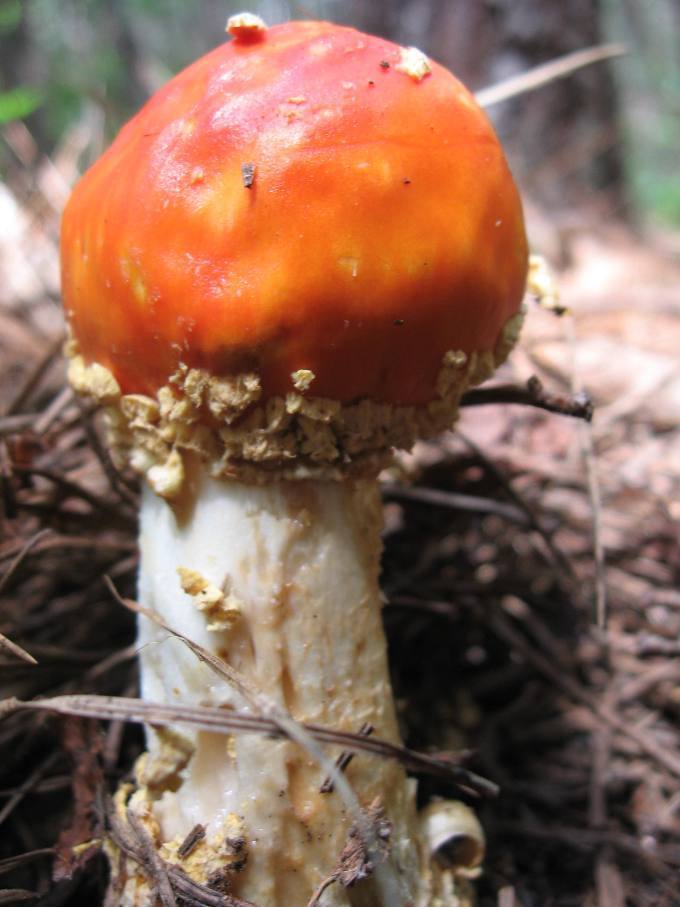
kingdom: Fungi
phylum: Basidiomycota
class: Agaricomycetes
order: Agaricales
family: Amanitaceae
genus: Amanita
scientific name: Amanita persicina
